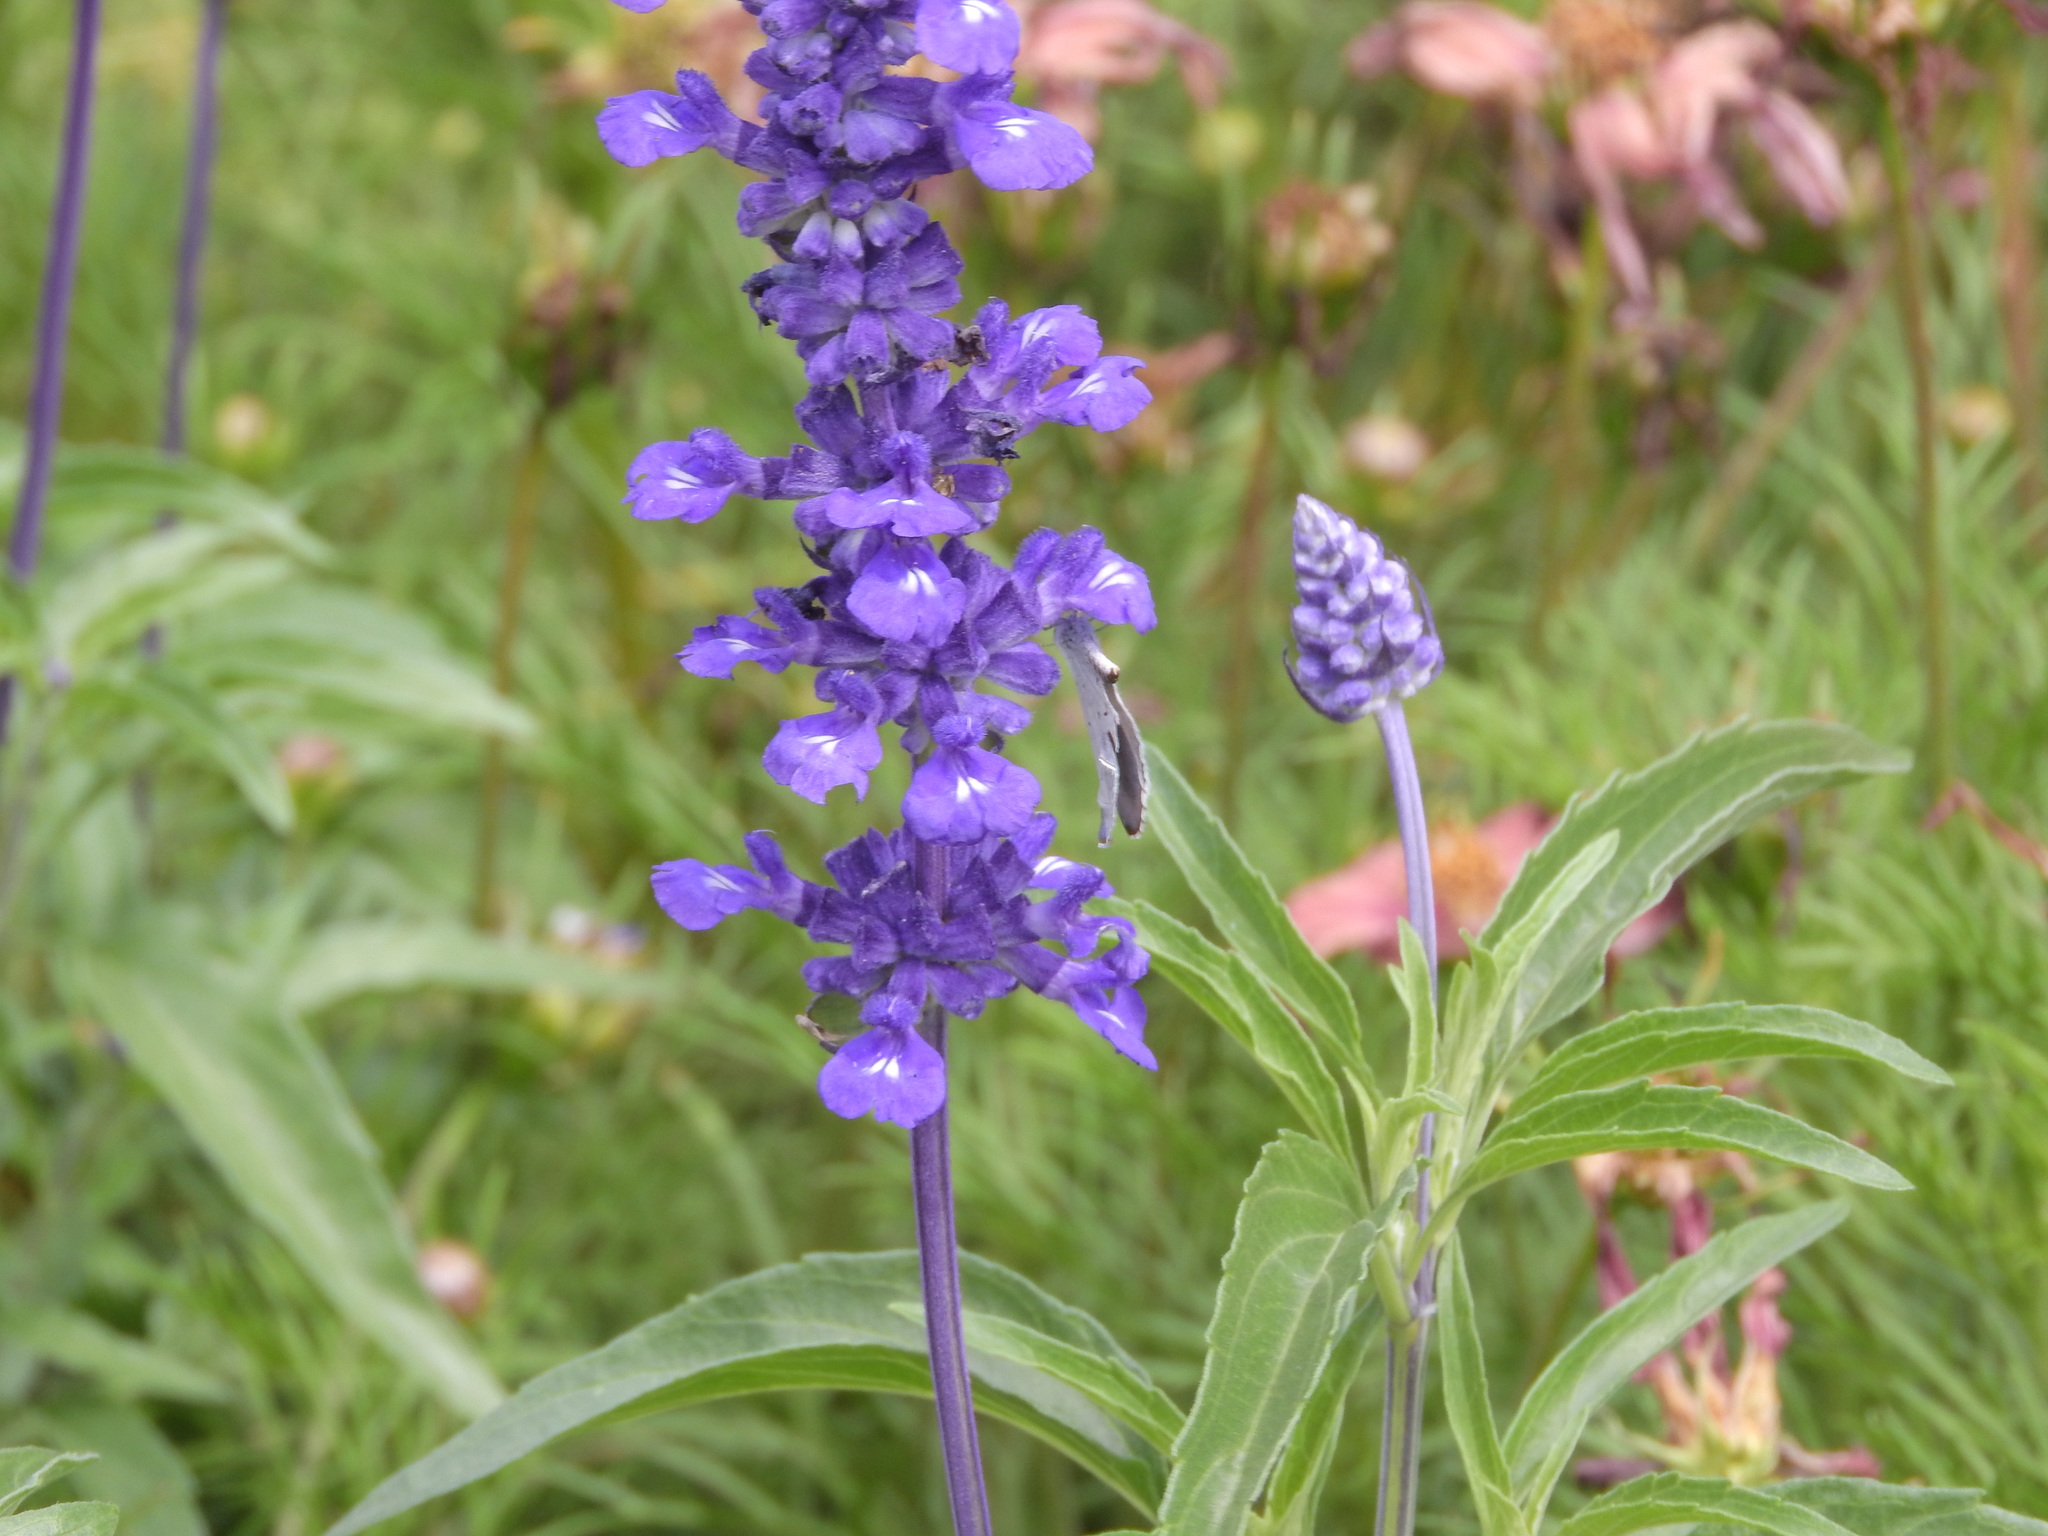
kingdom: Animalia
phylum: Arthropoda
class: Insecta
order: Lepidoptera
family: Lycaenidae
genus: Celastrina
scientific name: Celastrina argiolus
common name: Holly blue
